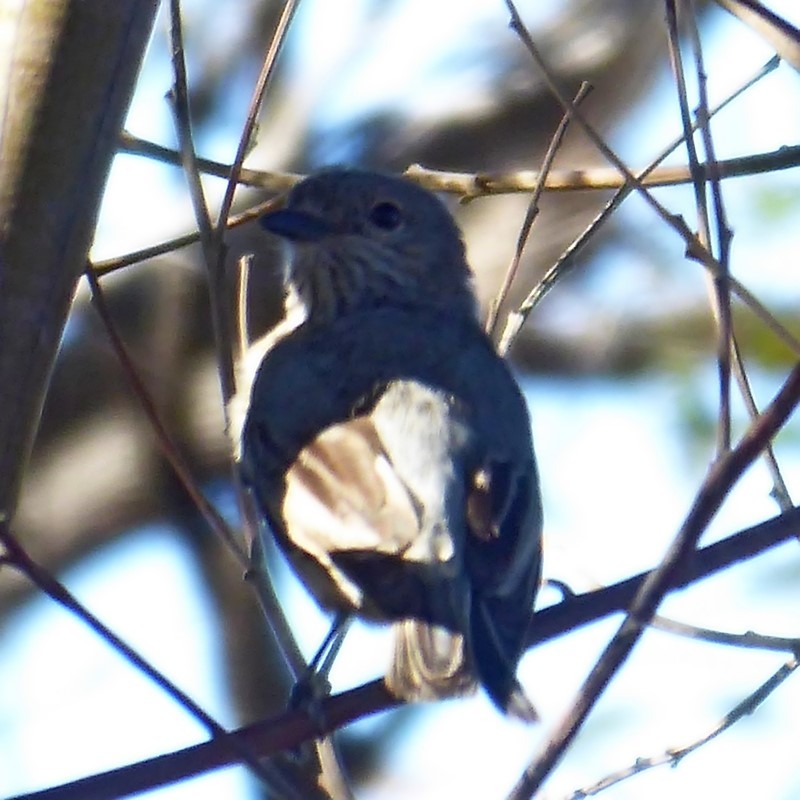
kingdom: Animalia
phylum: Chordata
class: Aves
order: Passeriformes
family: Pachycephalidae
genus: Pachycephala
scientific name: Pachycephala rufiventris
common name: Rufous whistler
